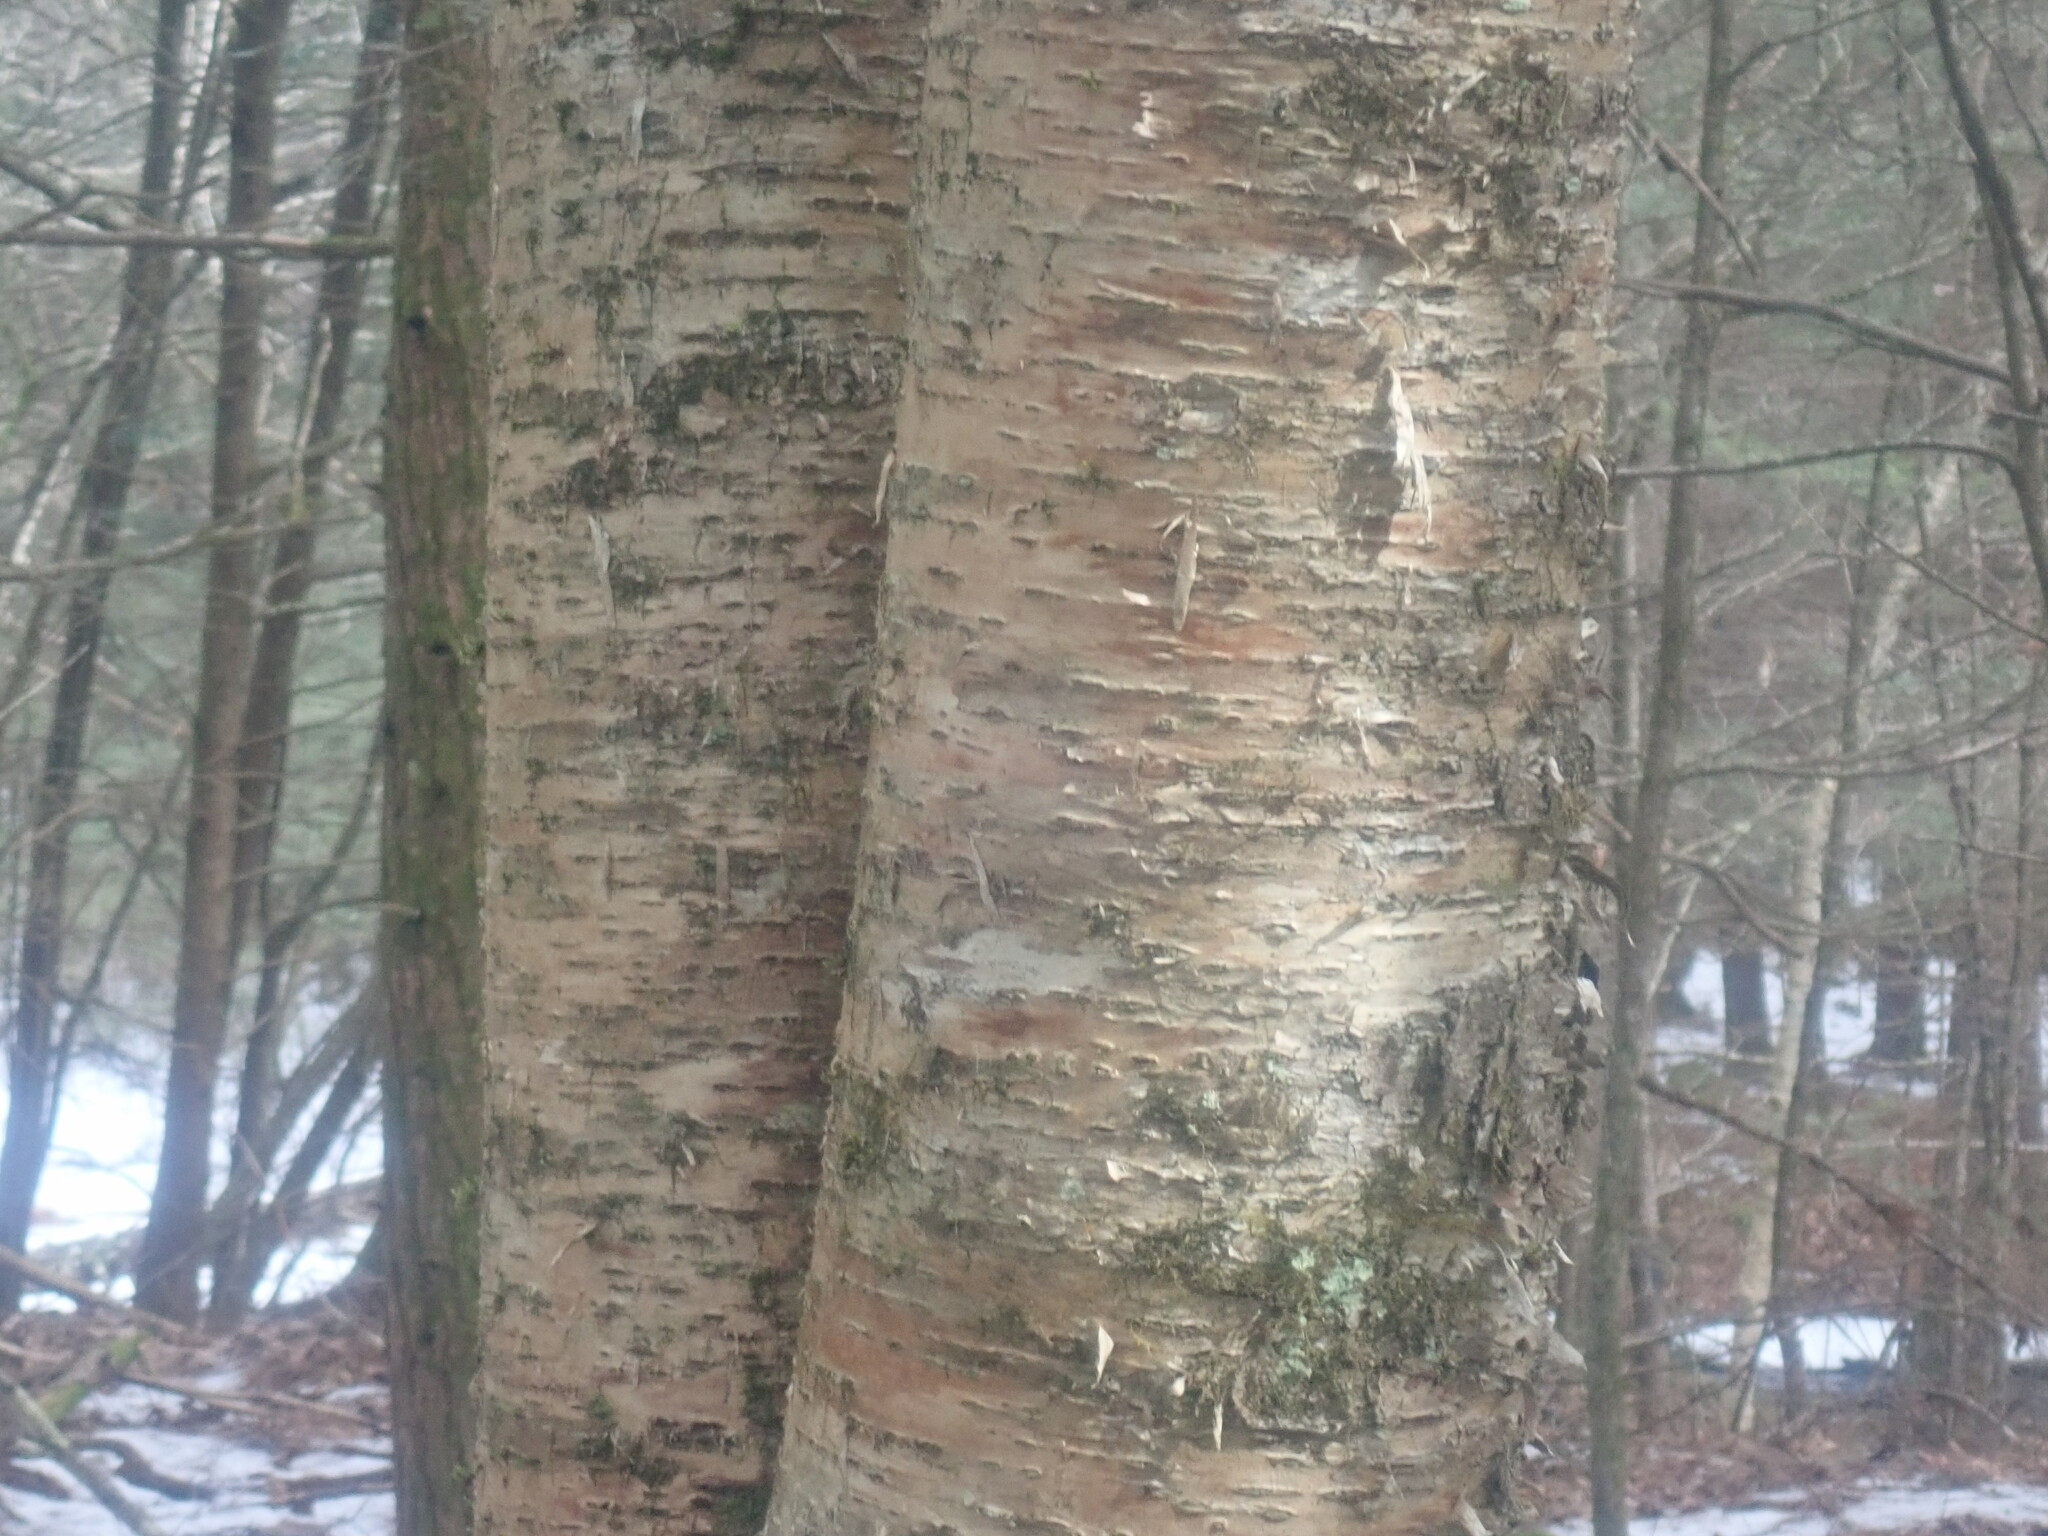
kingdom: Plantae
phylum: Tracheophyta
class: Magnoliopsida
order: Fagales
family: Betulaceae
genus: Betula
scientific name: Betula alleghaniensis
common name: Yellow birch
